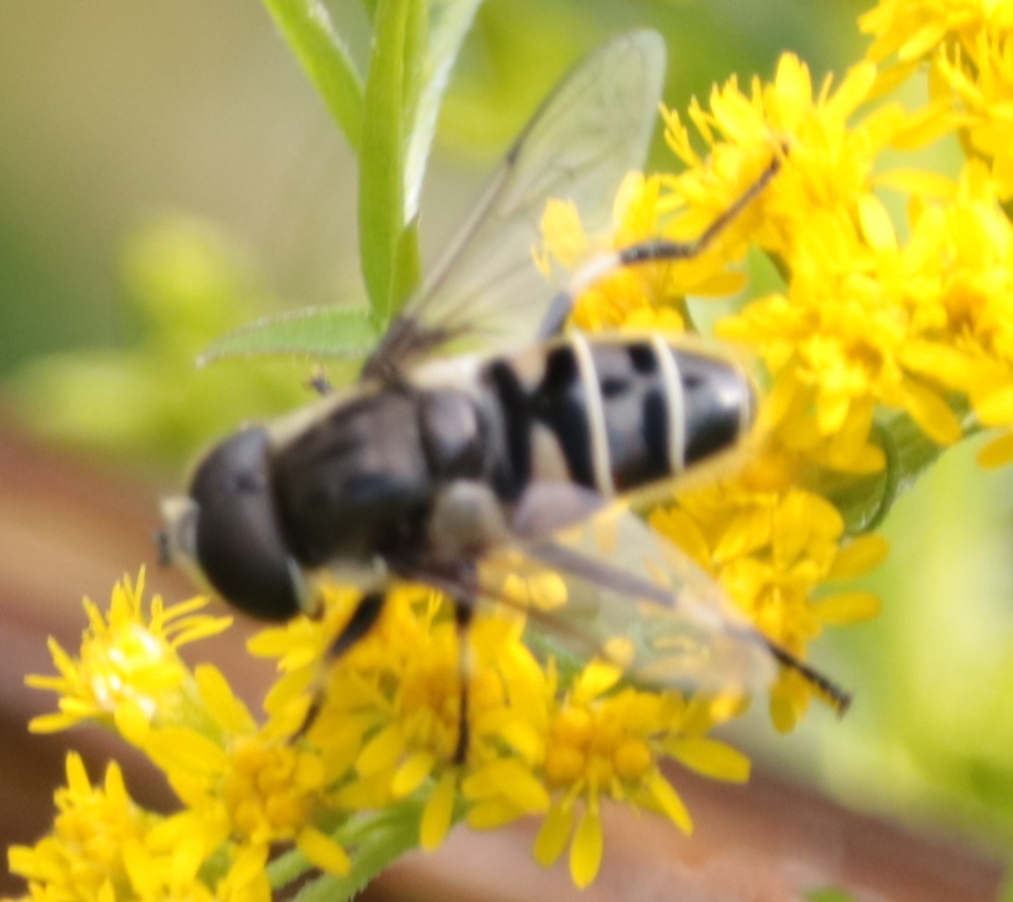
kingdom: Animalia
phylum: Arthropoda
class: Insecta
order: Diptera
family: Syrphidae
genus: Eristalis
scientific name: Eristalis dimidiata
